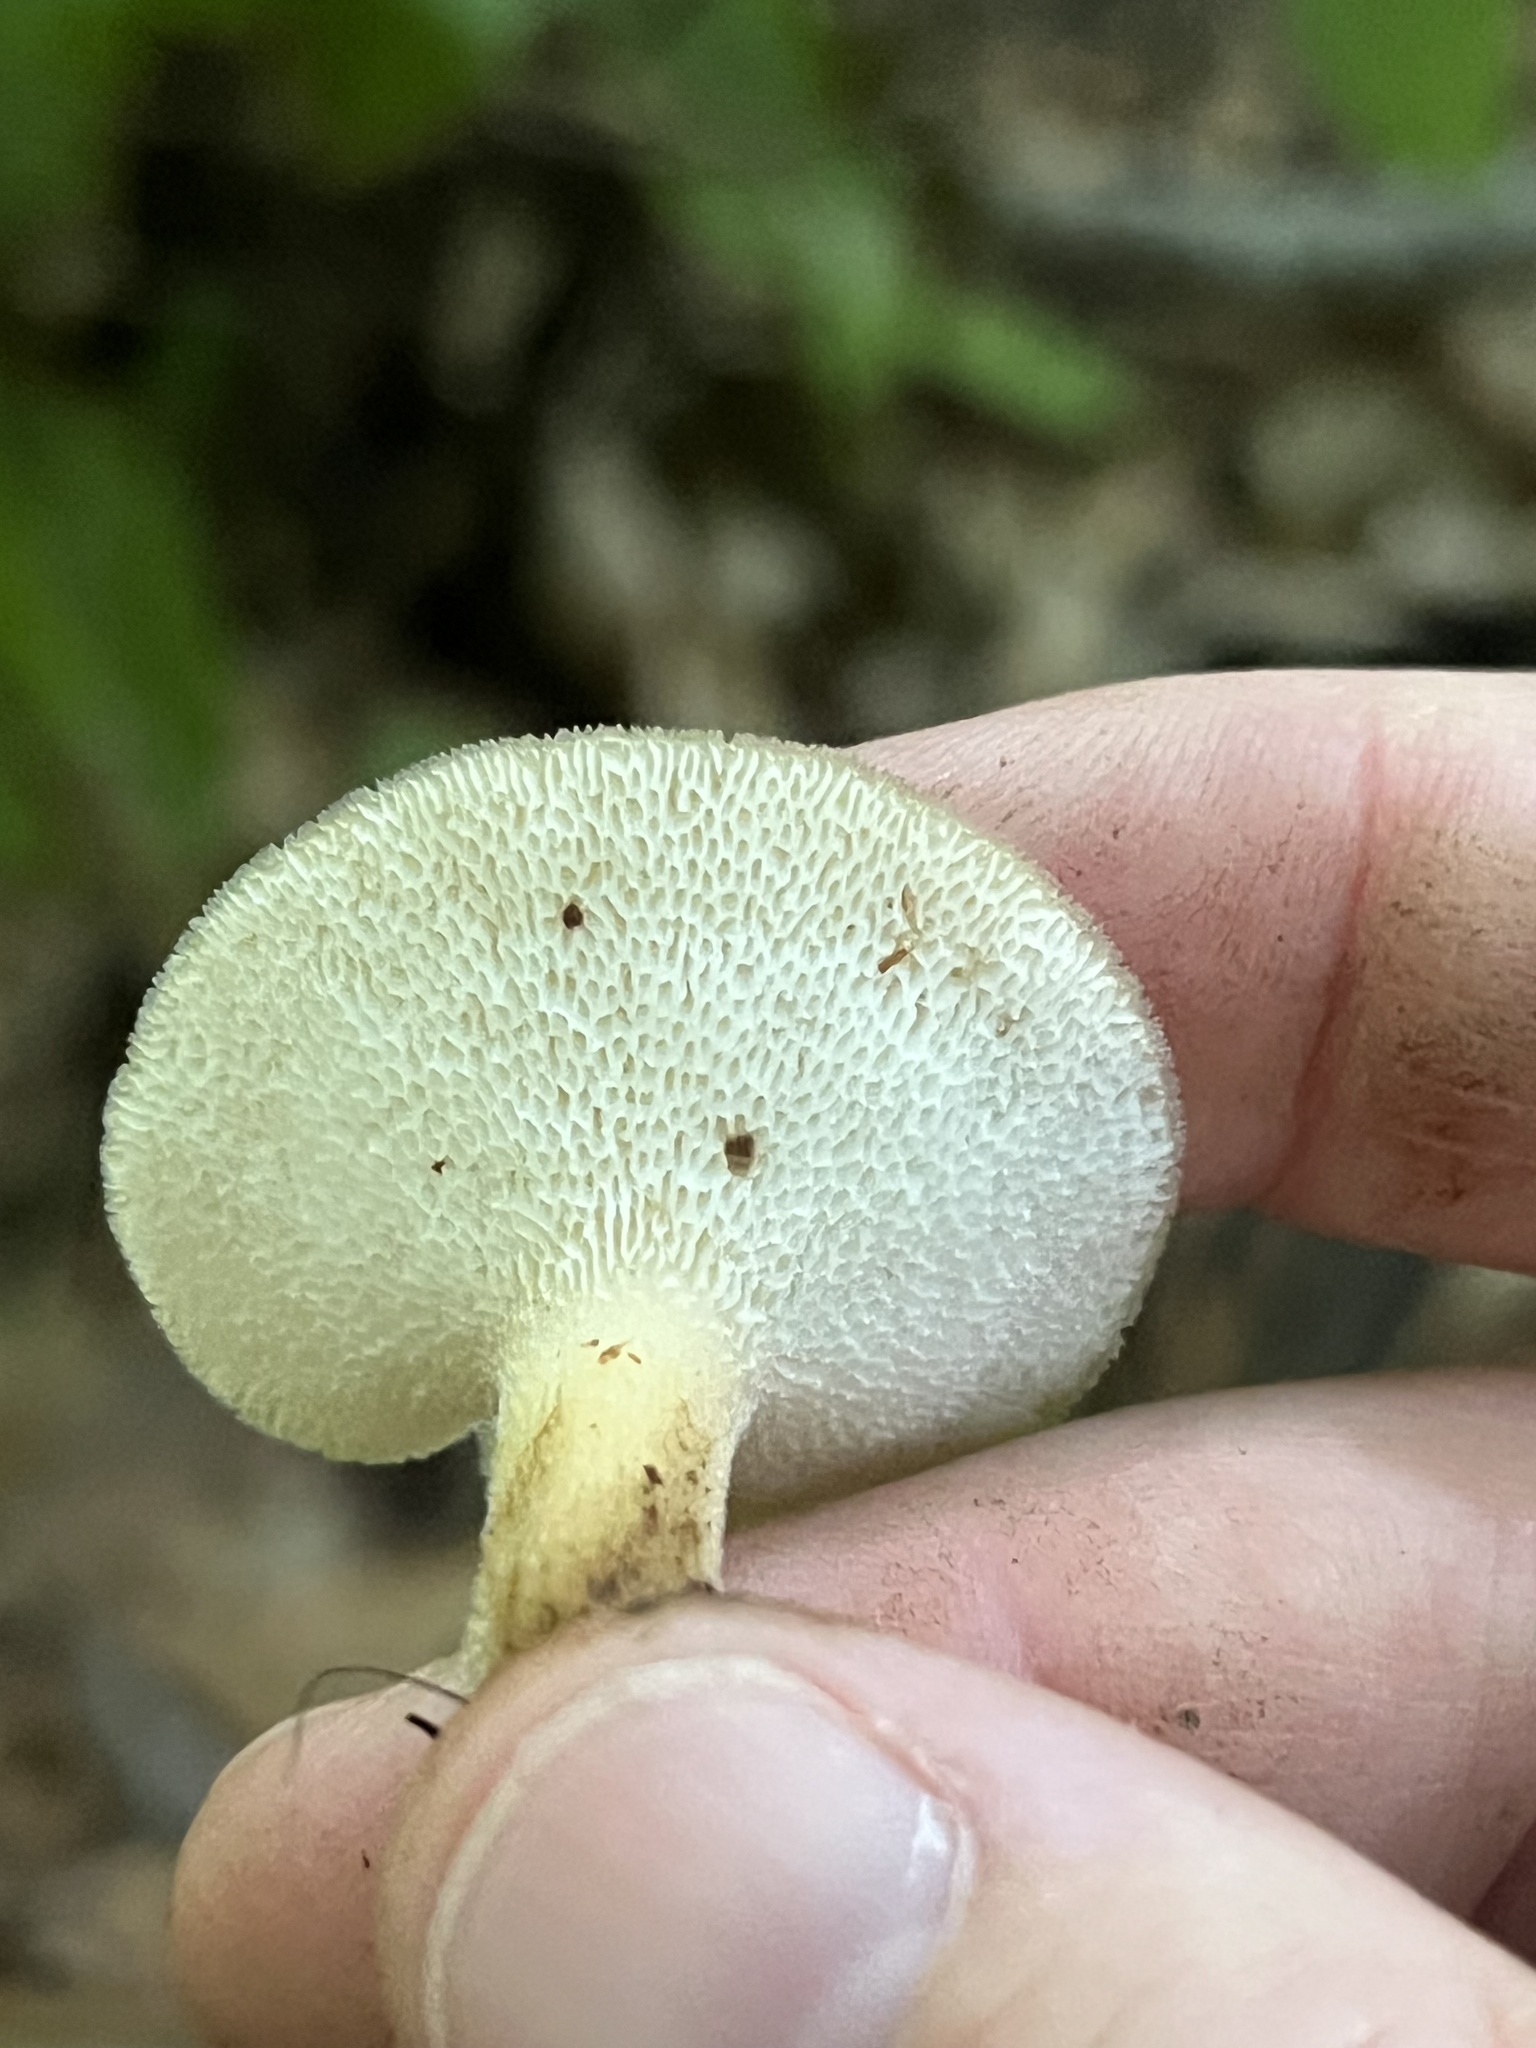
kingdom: Fungi
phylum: Basidiomycota
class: Agaricomycetes
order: Polyporales
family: Polyporaceae
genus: Lentinus
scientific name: Lentinus arcularius
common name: Spring polypore
